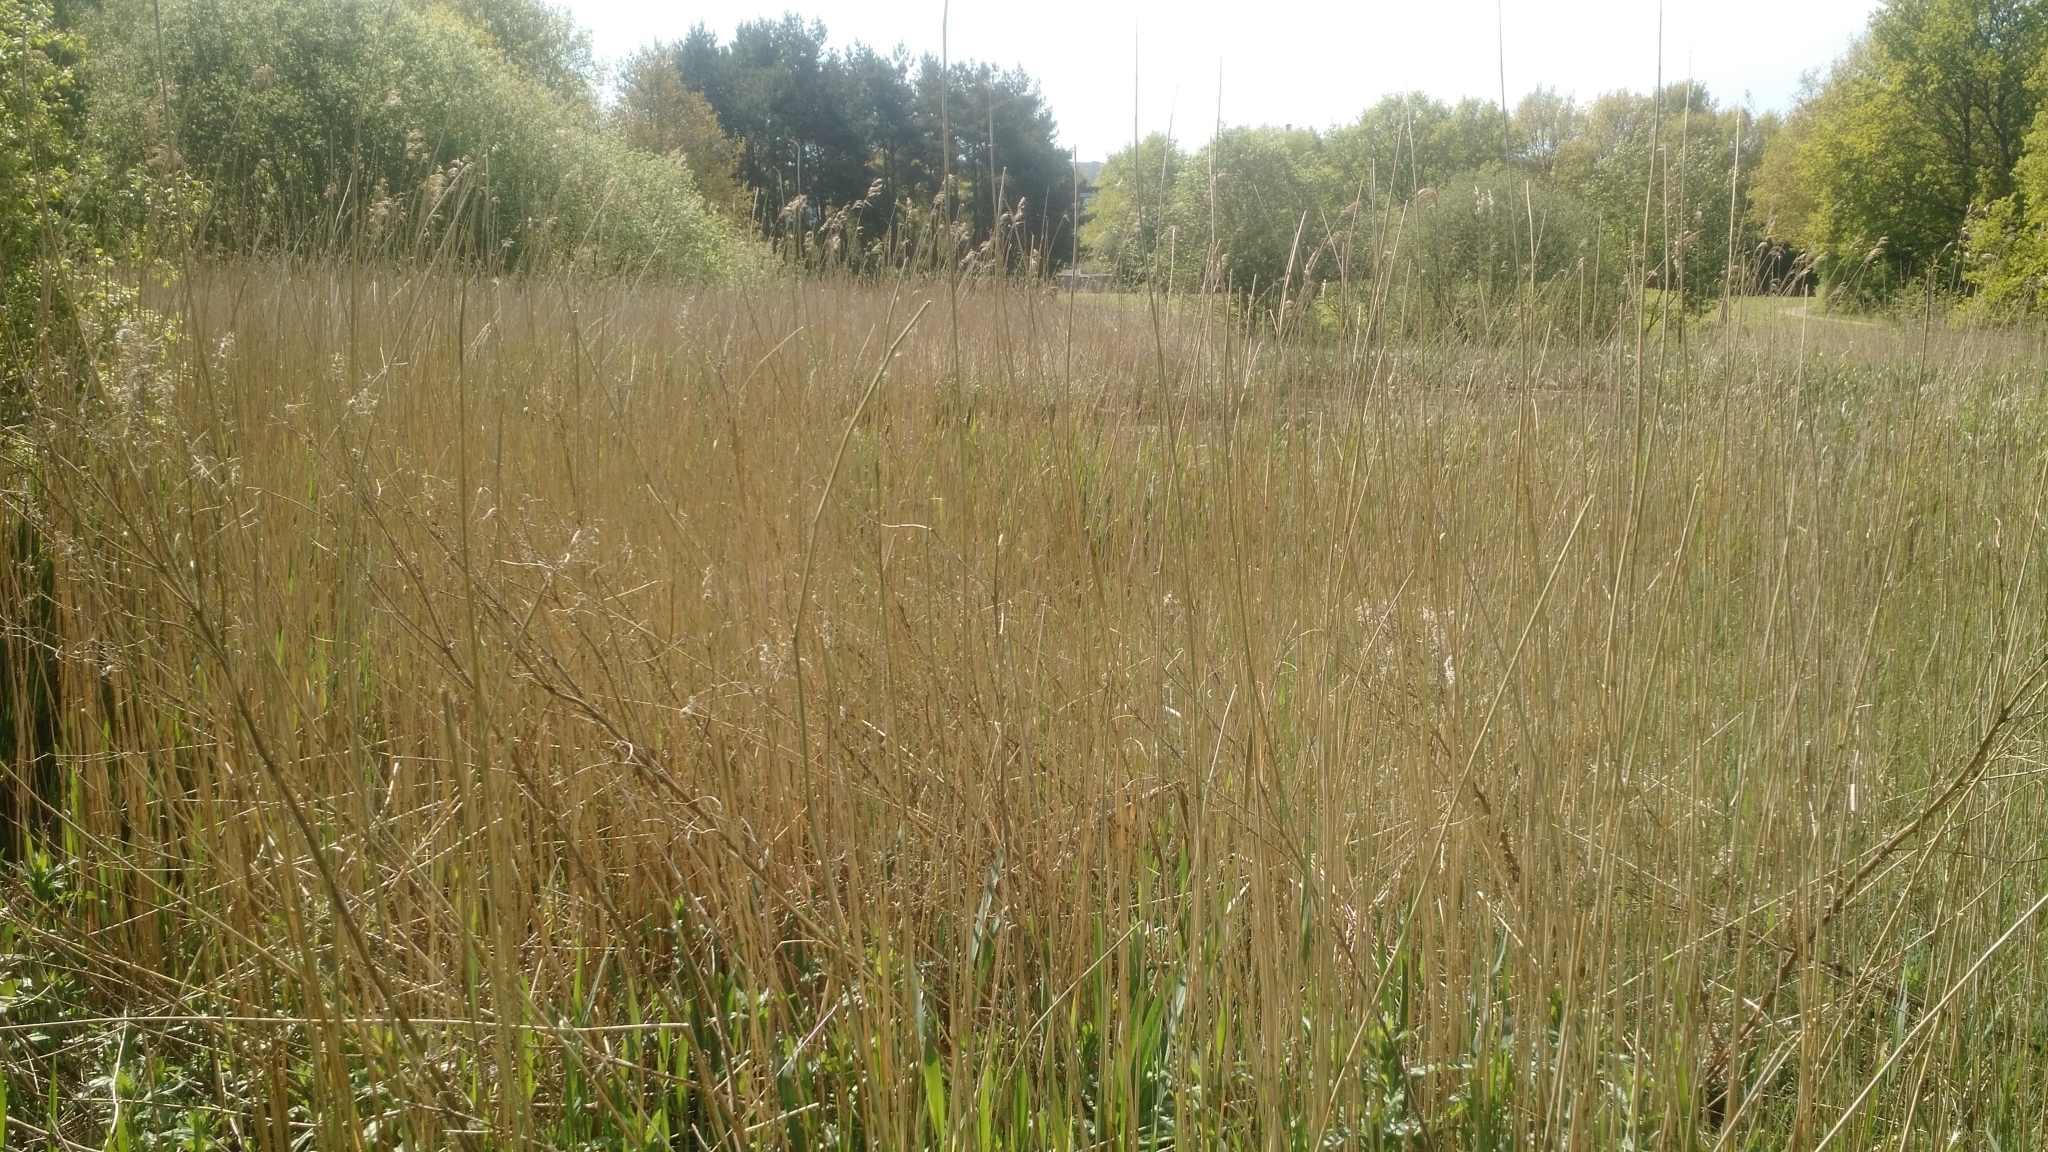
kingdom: Plantae
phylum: Tracheophyta
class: Liliopsida
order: Poales
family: Poaceae
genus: Phragmites
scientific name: Phragmites australis
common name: Common reed
